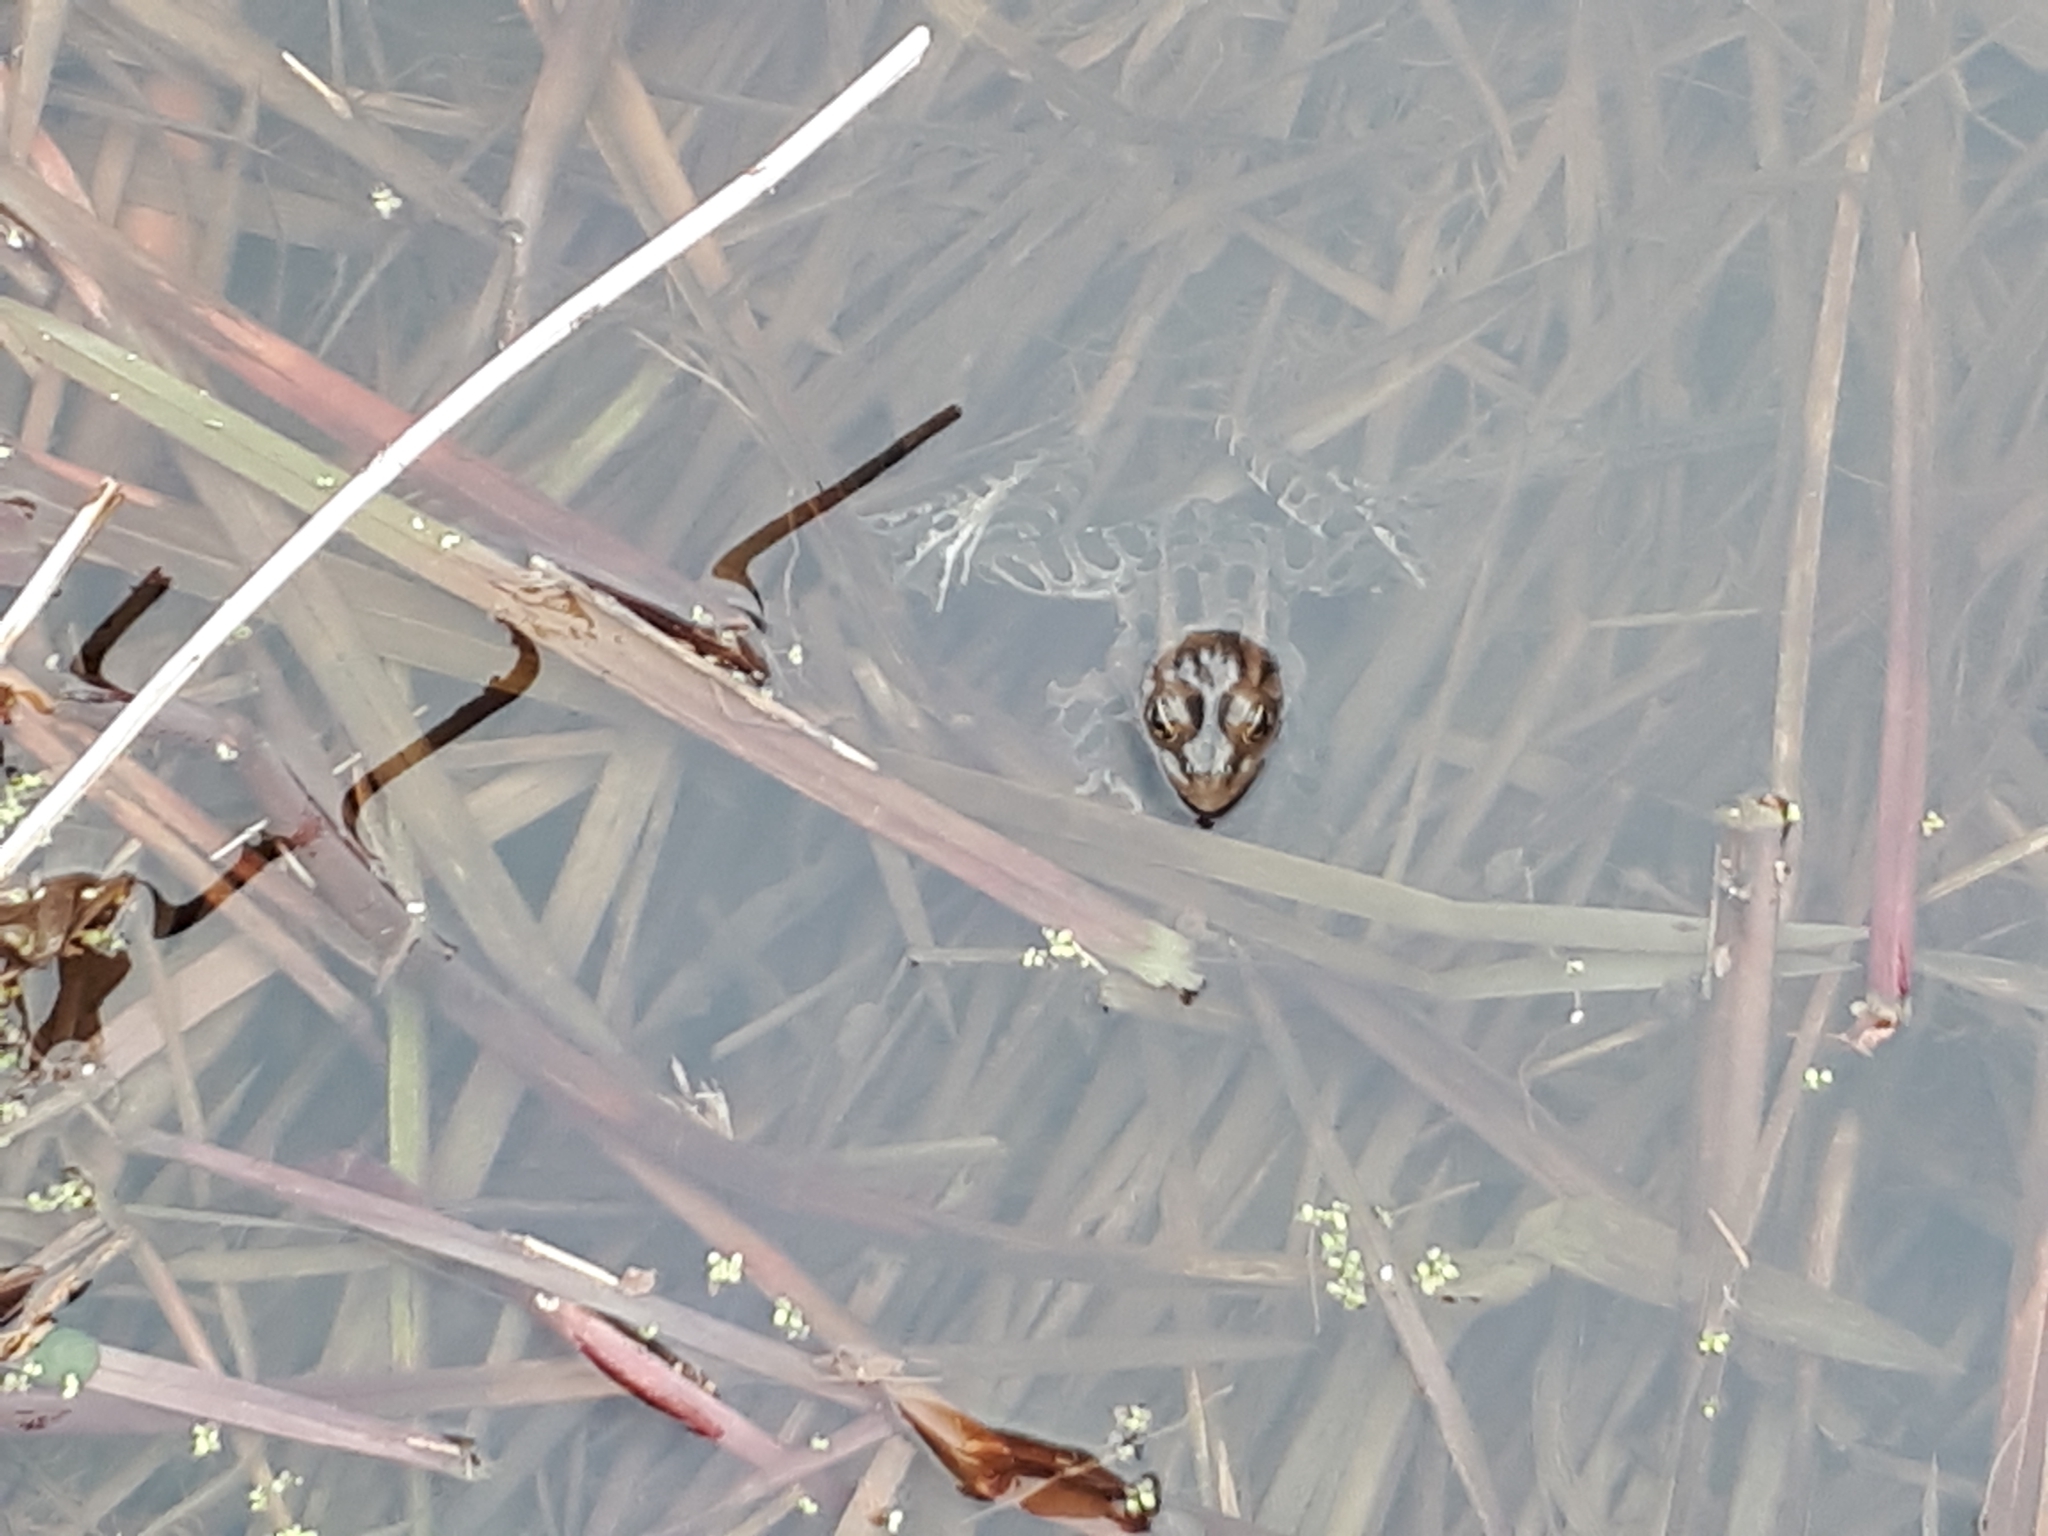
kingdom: Animalia
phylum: Chordata
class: Amphibia
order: Anura
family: Ranidae
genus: Lithobates
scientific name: Lithobates pipiens
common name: Northern leopard frog
